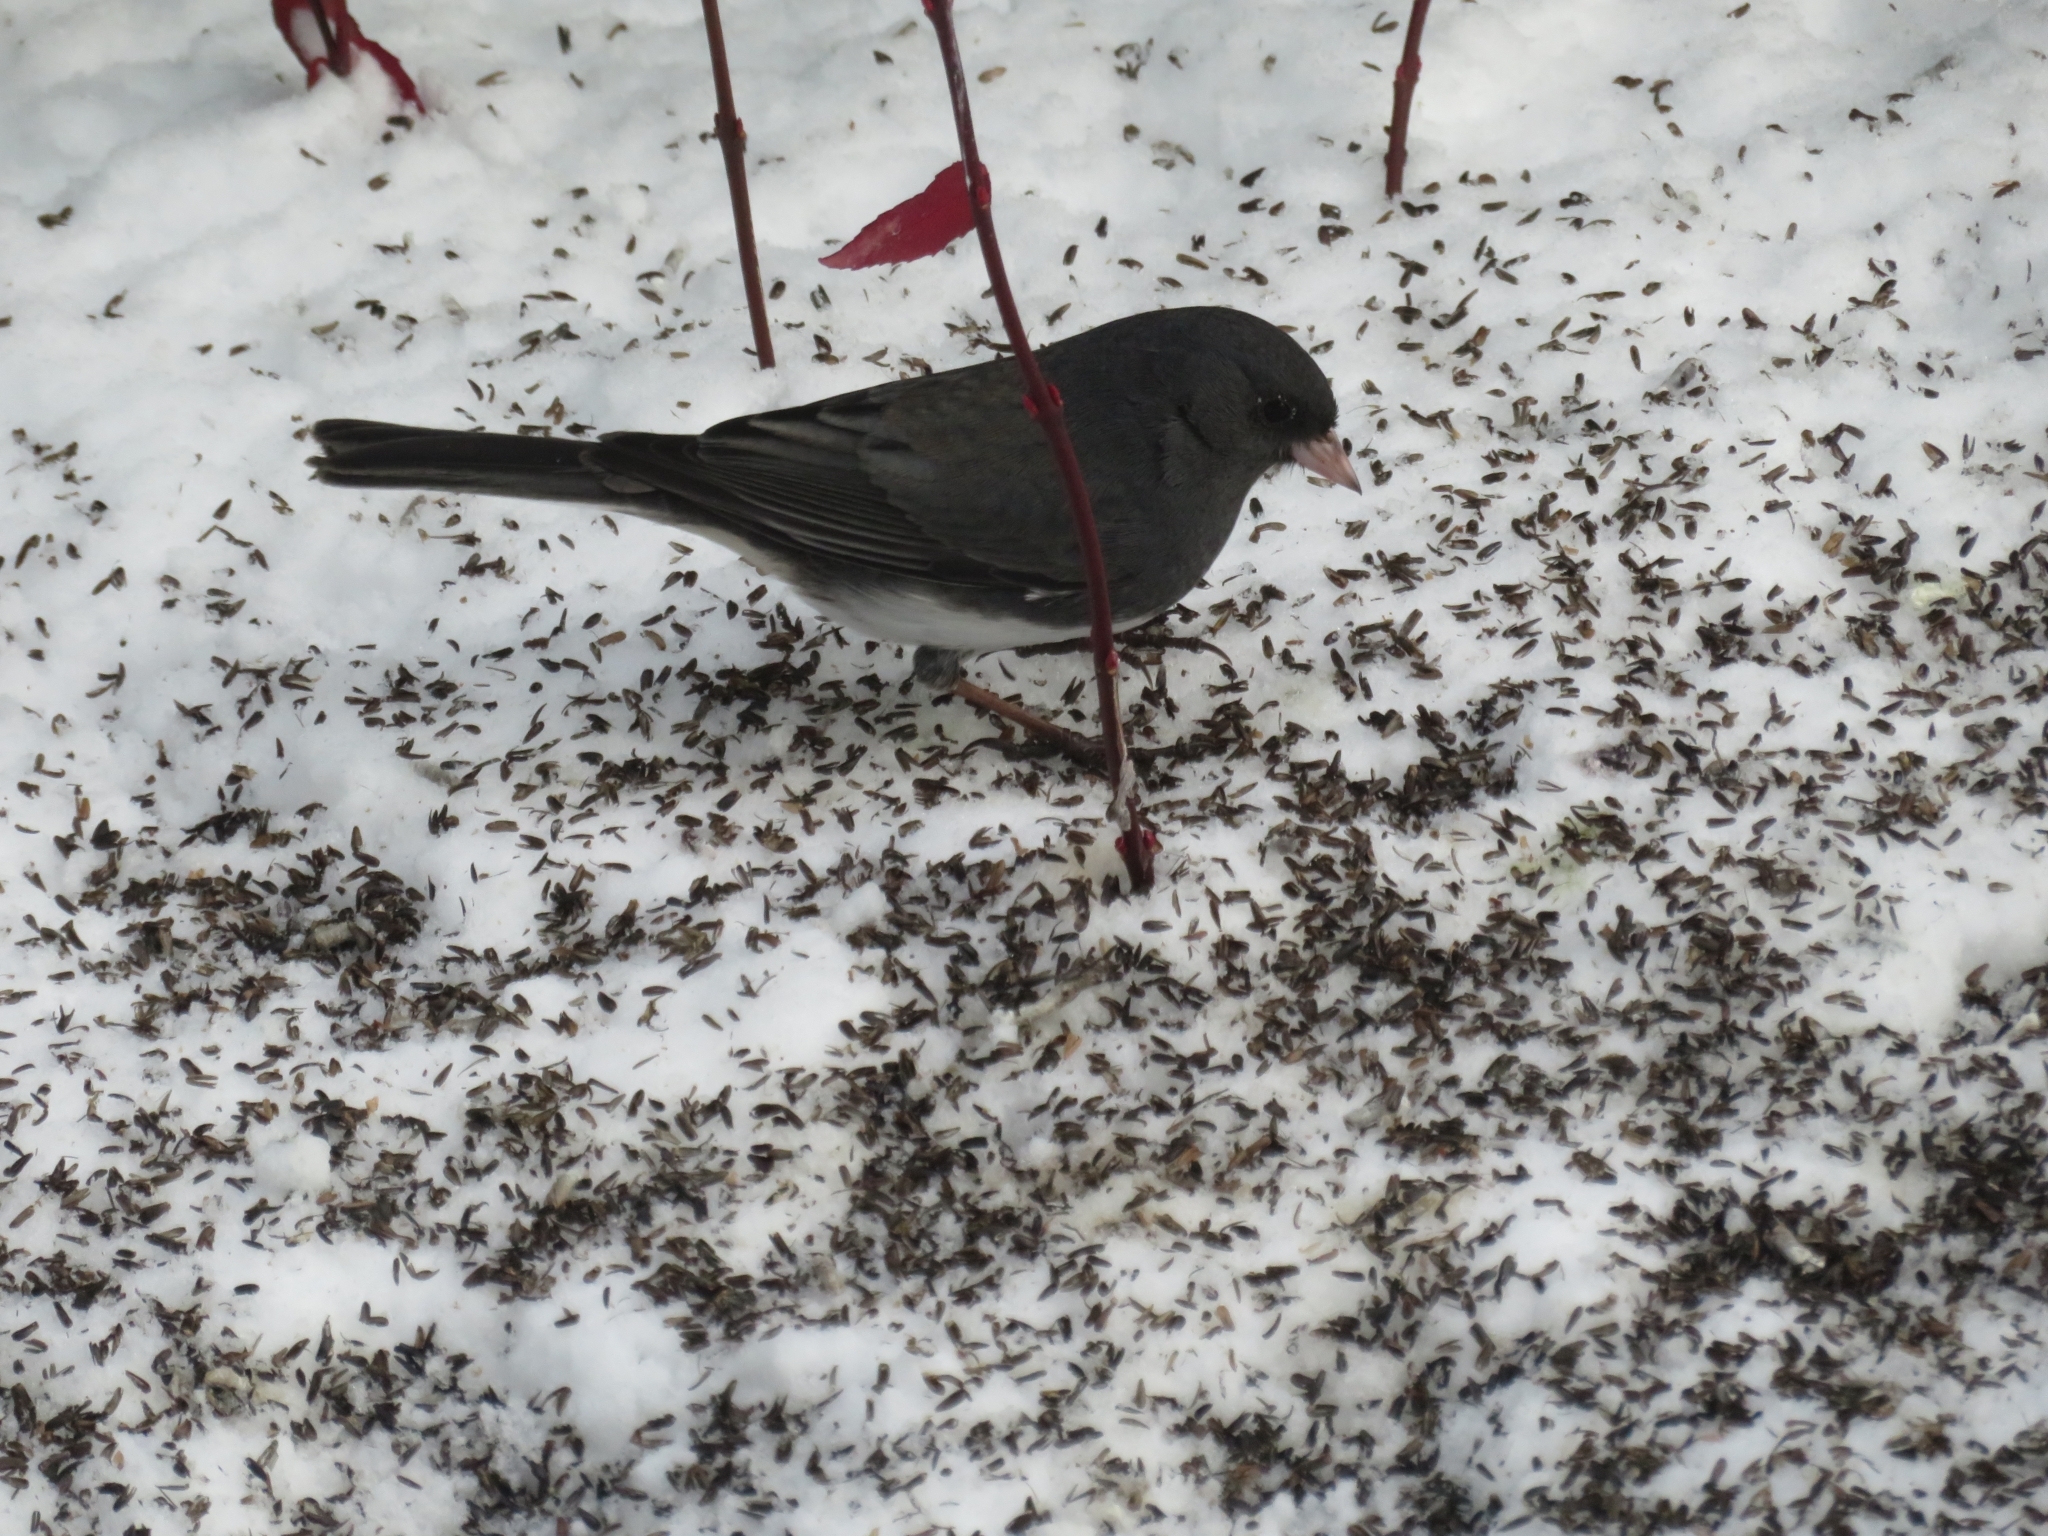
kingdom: Animalia
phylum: Chordata
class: Aves
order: Passeriformes
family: Passerellidae
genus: Junco
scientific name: Junco hyemalis
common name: Dark-eyed junco
